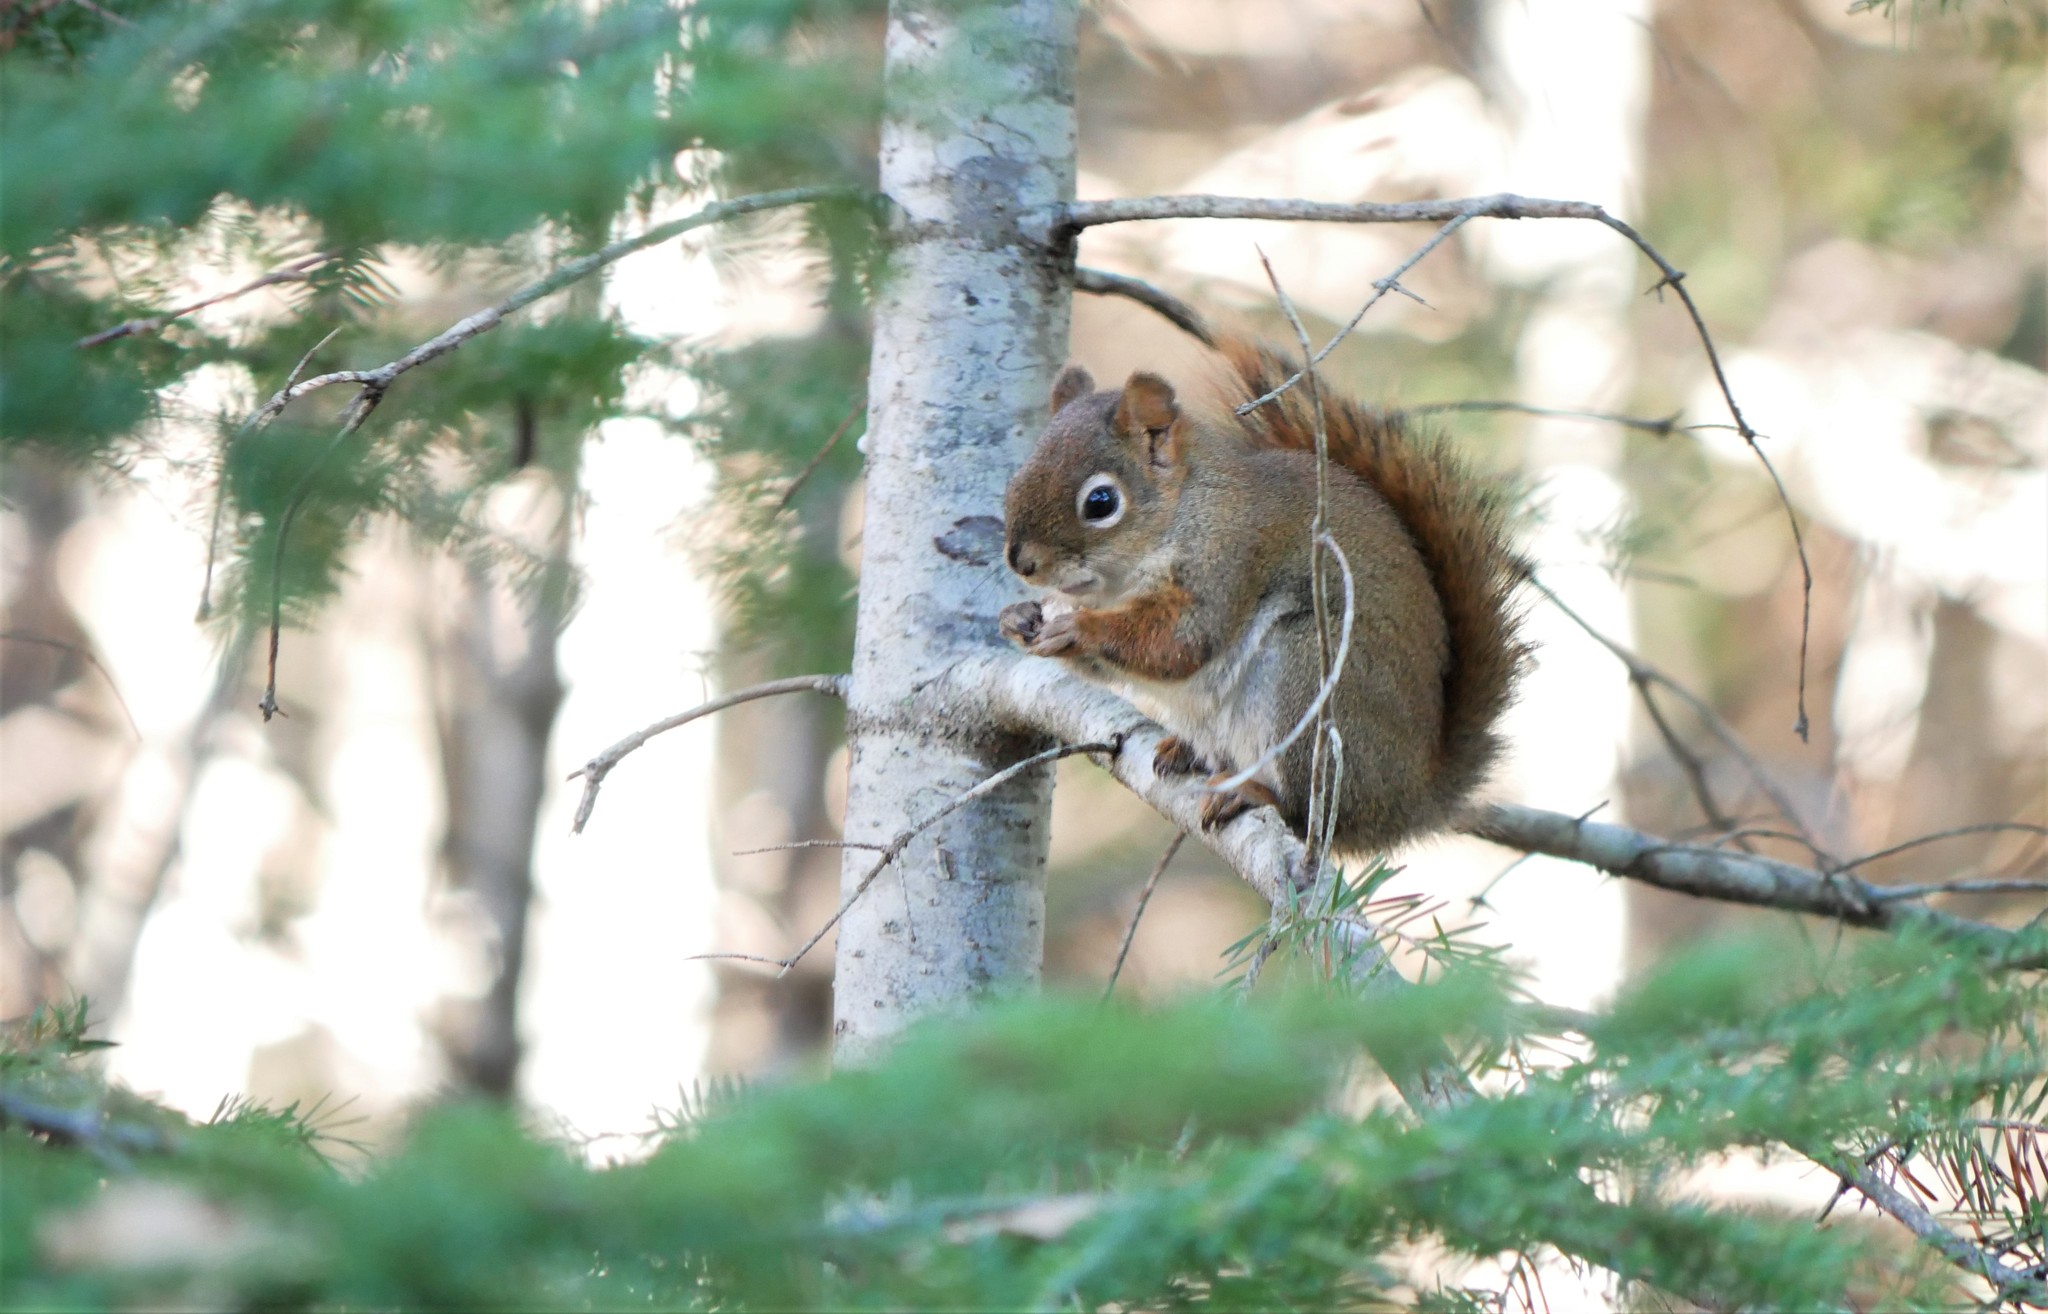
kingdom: Animalia
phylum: Chordata
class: Mammalia
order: Rodentia
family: Sciuridae
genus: Tamiasciurus
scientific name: Tamiasciurus hudsonicus
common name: Red squirrel
